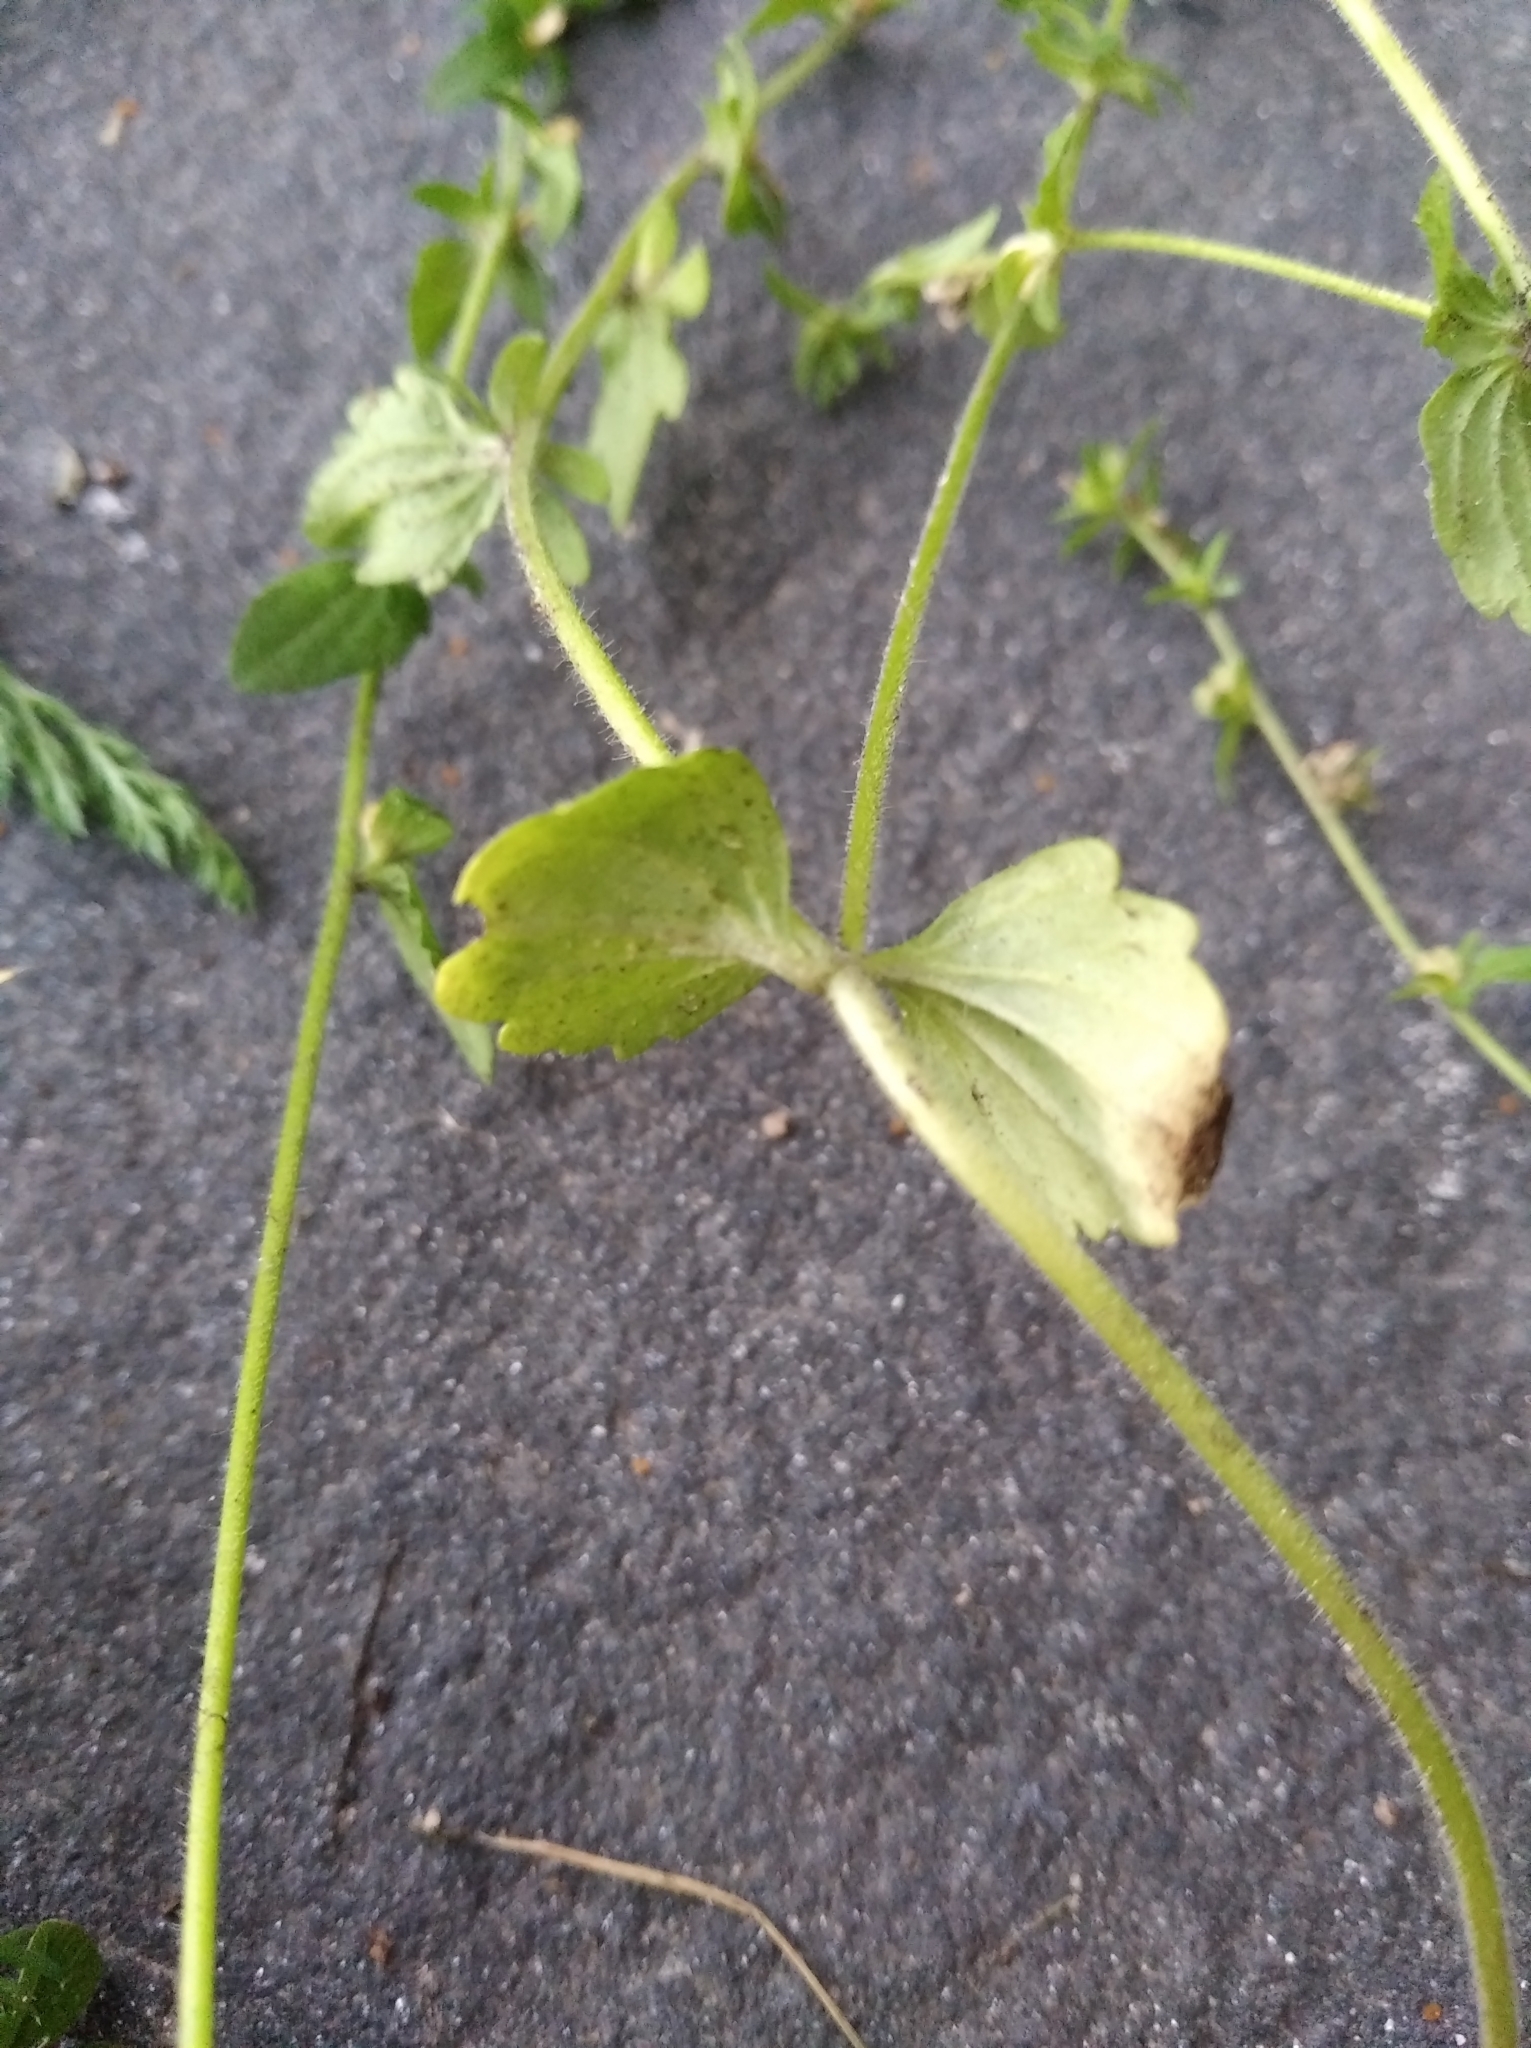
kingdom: Plantae
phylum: Tracheophyta
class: Magnoliopsida
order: Lamiales
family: Plantaginaceae
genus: Veronica
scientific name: Veronica arvensis
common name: Corn speedwell
